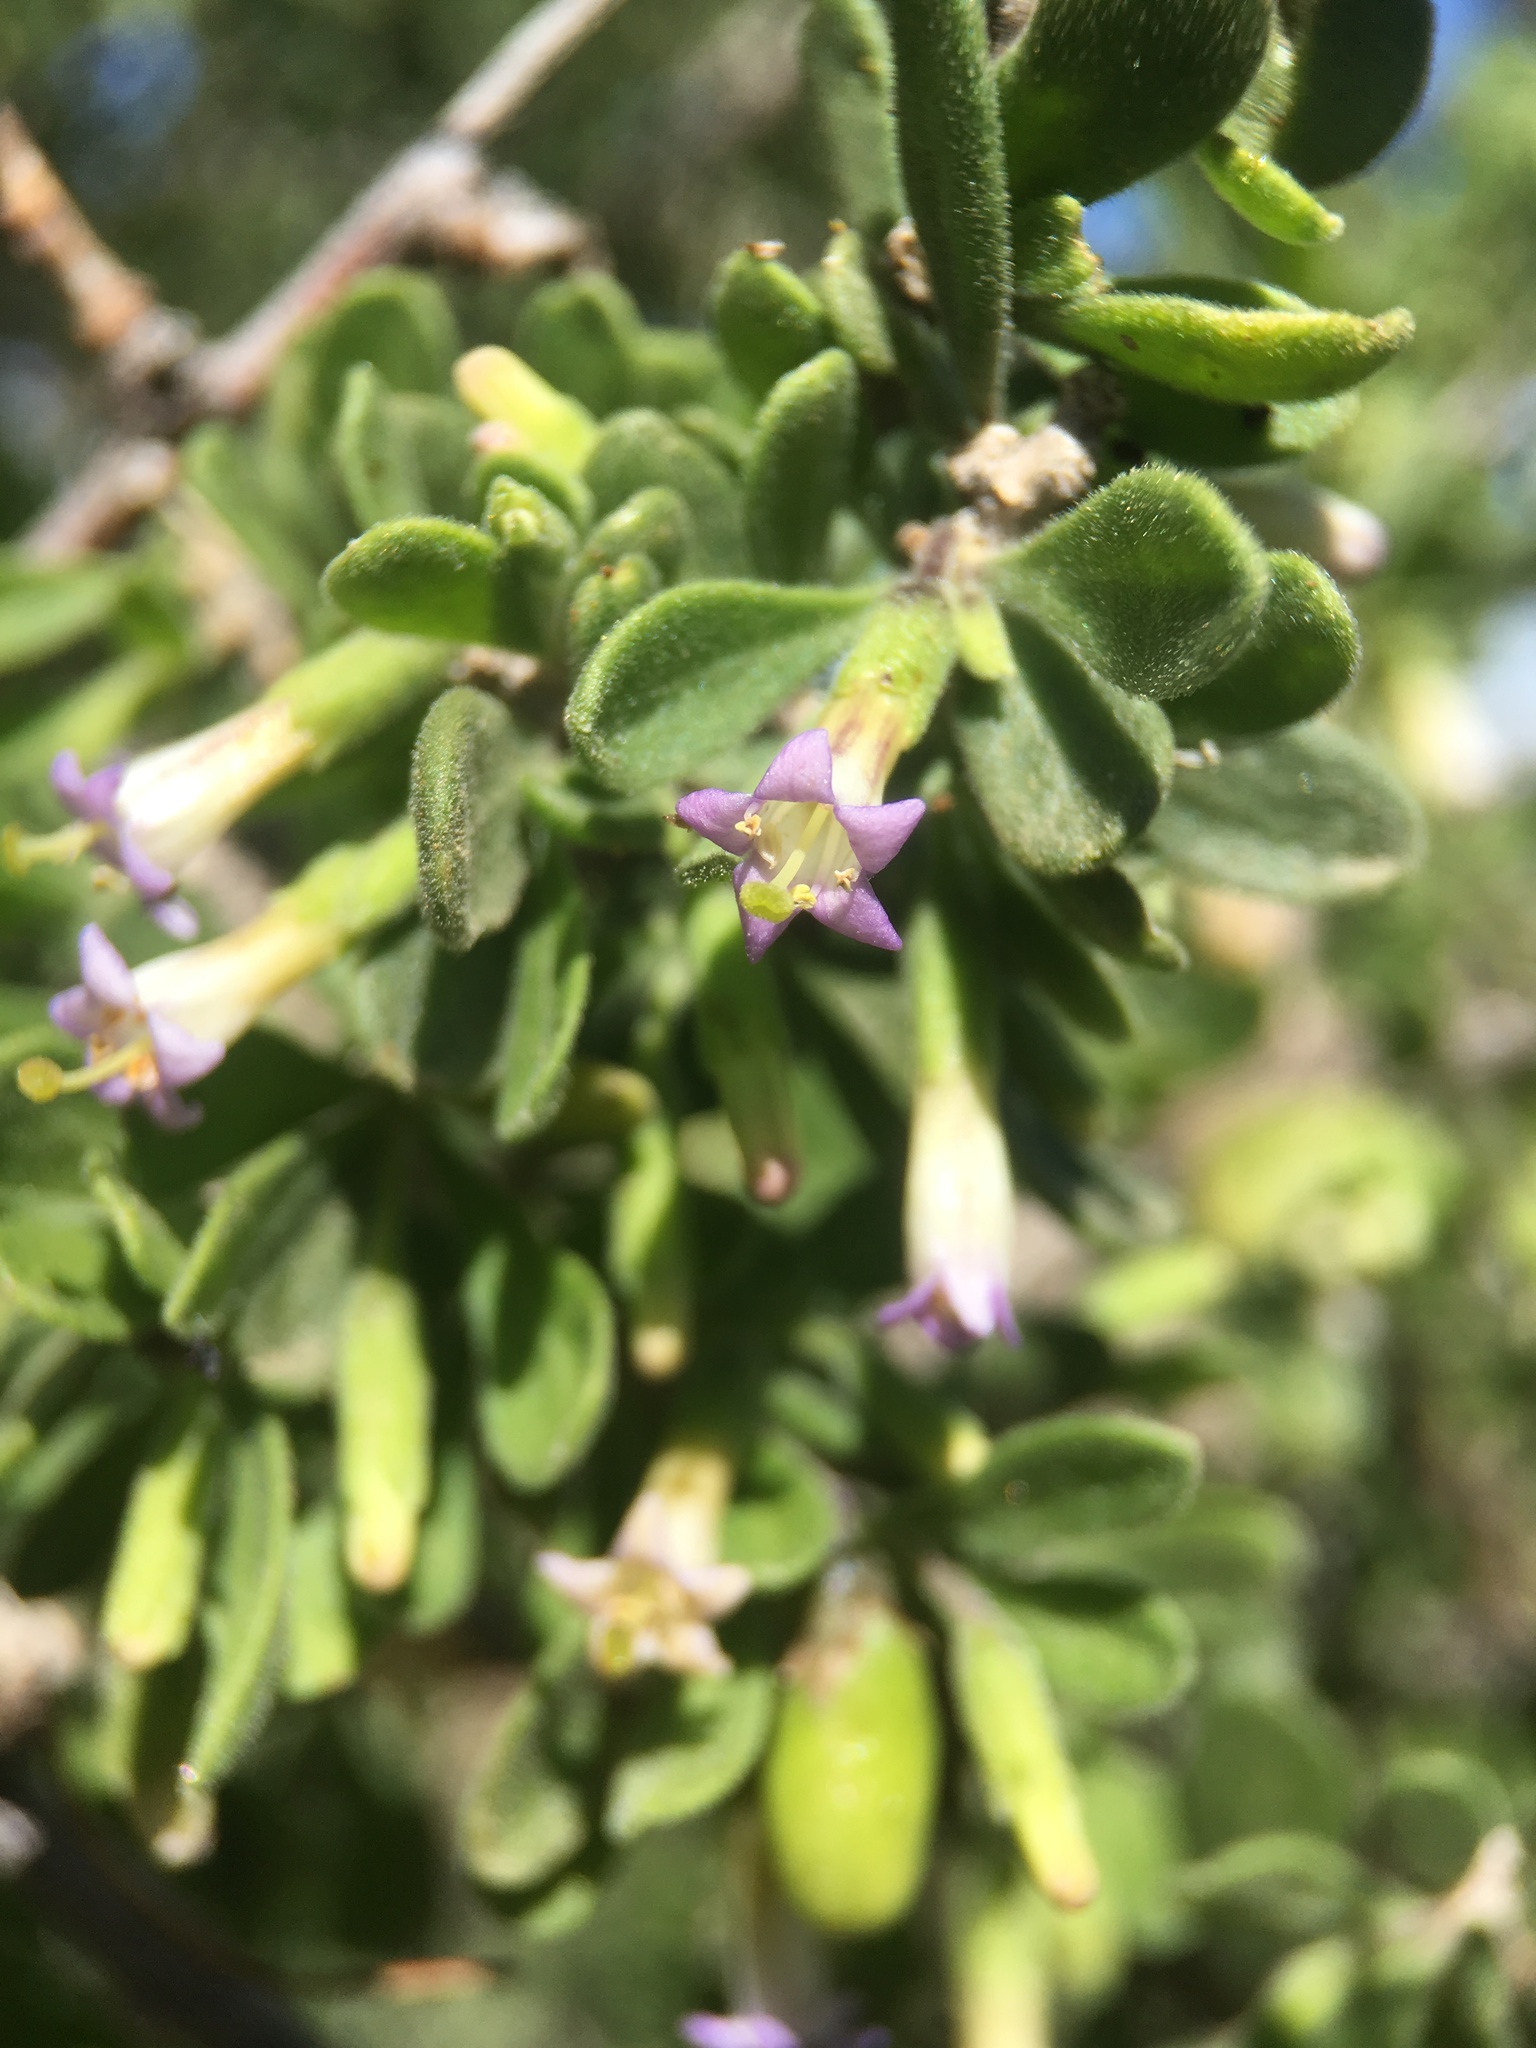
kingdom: Plantae
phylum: Tracheophyta
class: Magnoliopsida
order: Solanales
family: Solanaceae
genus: Lycium
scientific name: Lycium exsertum
